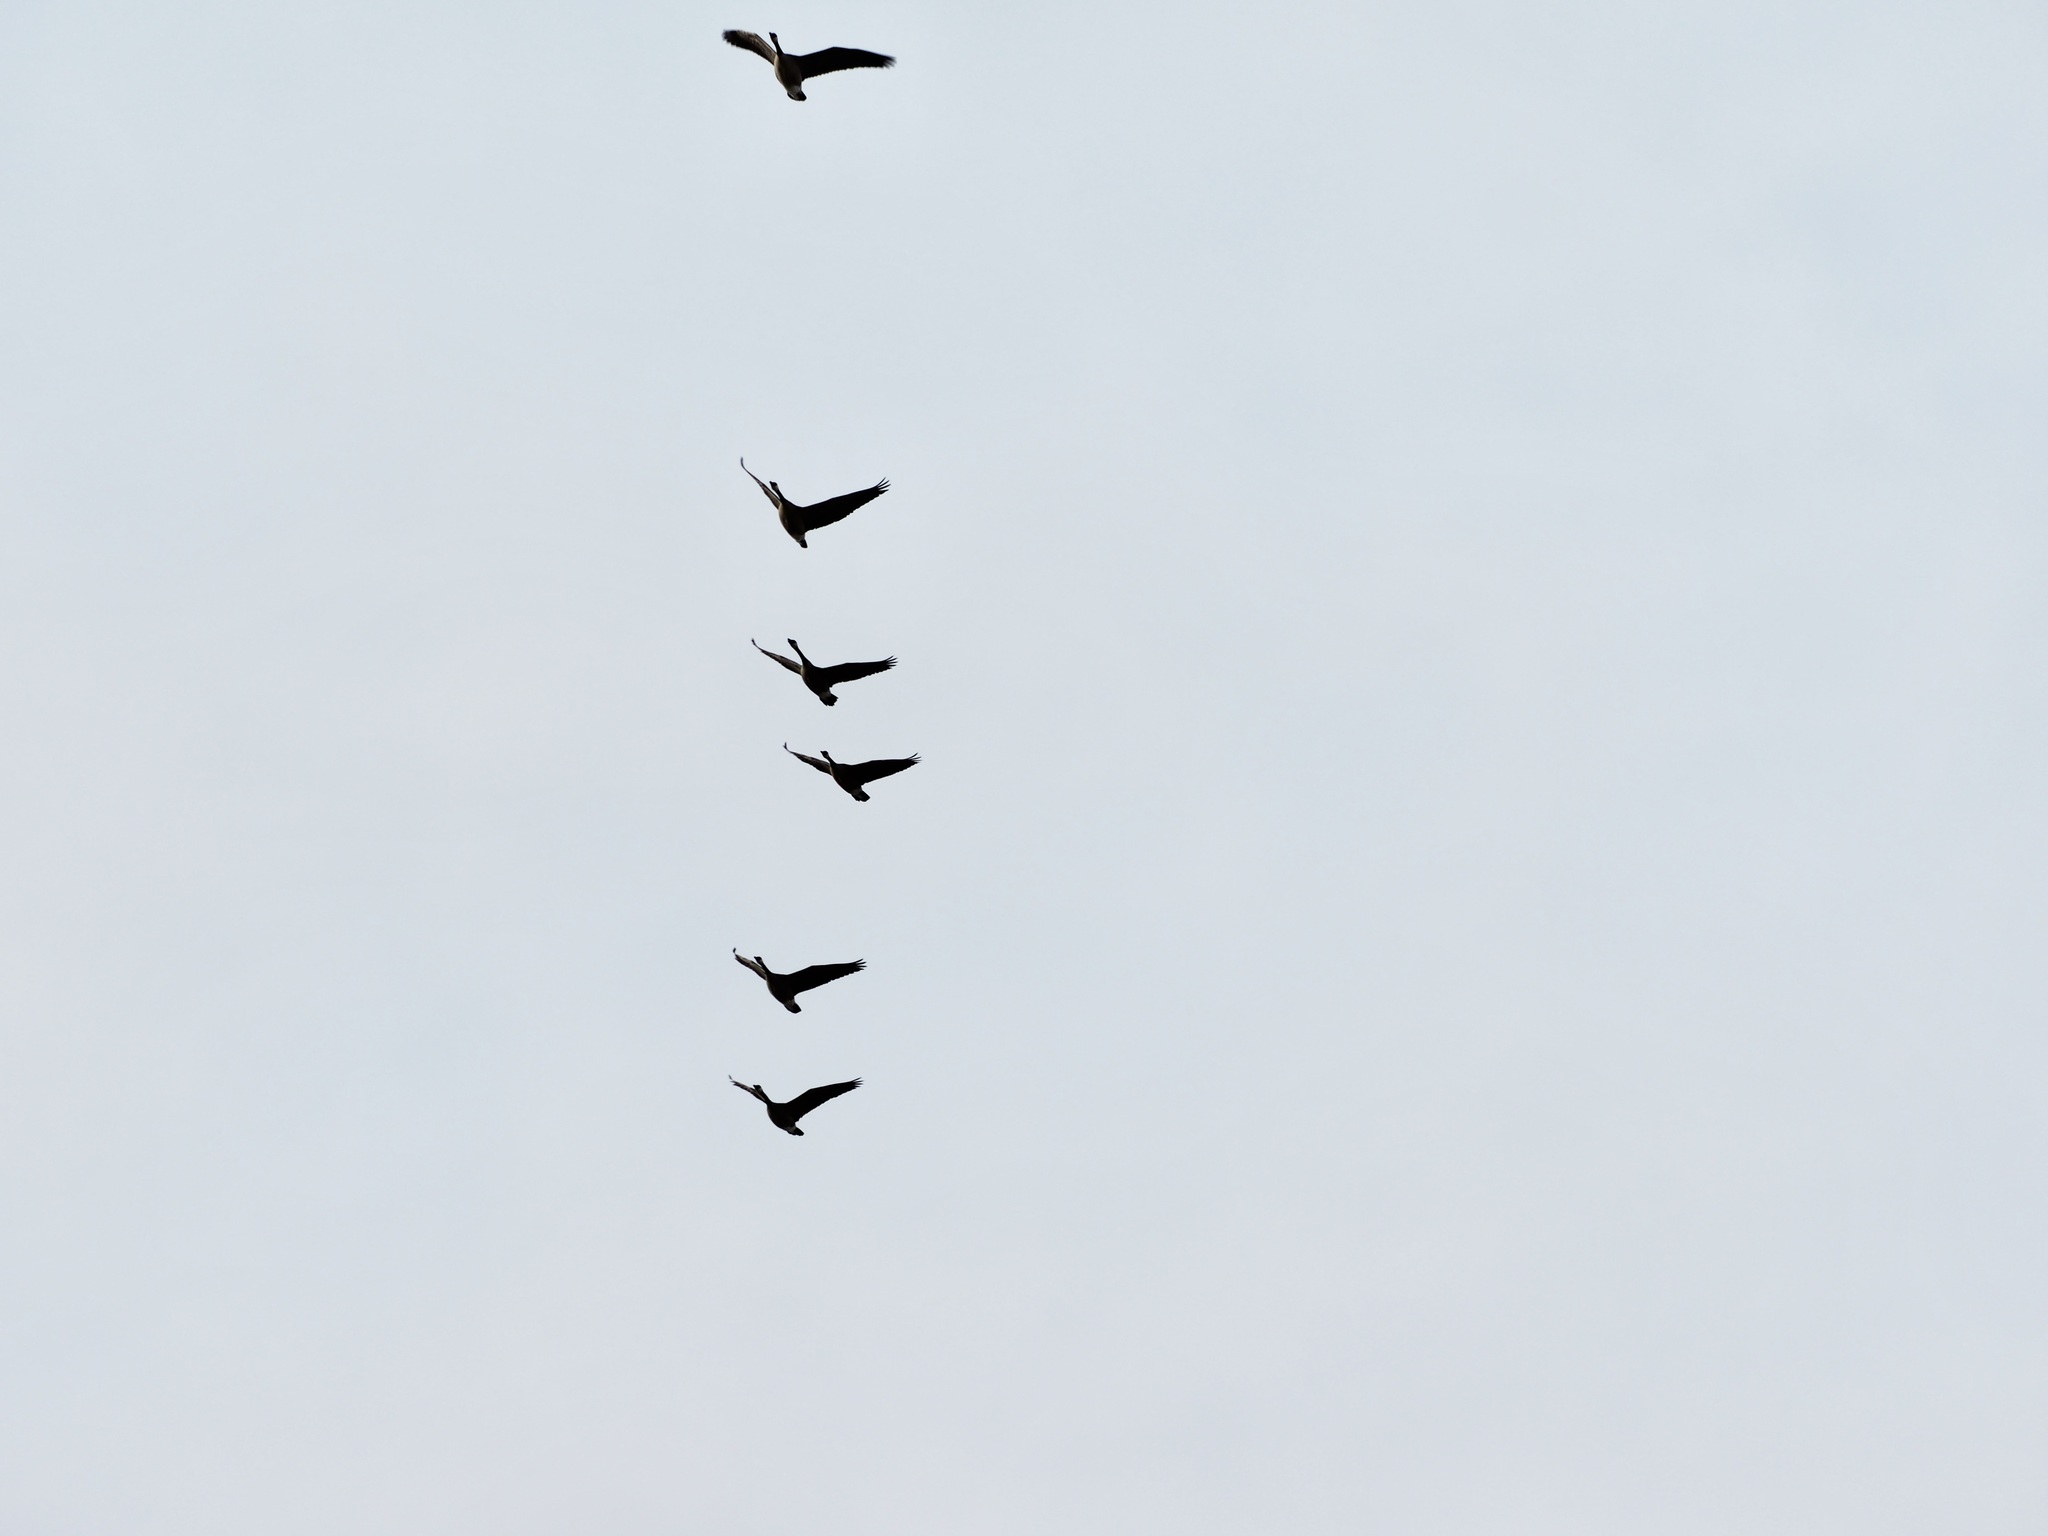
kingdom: Animalia
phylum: Chordata
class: Aves
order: Anseriformes
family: Anatidae
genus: Branta
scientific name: Branta canadensis
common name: Canada goose
